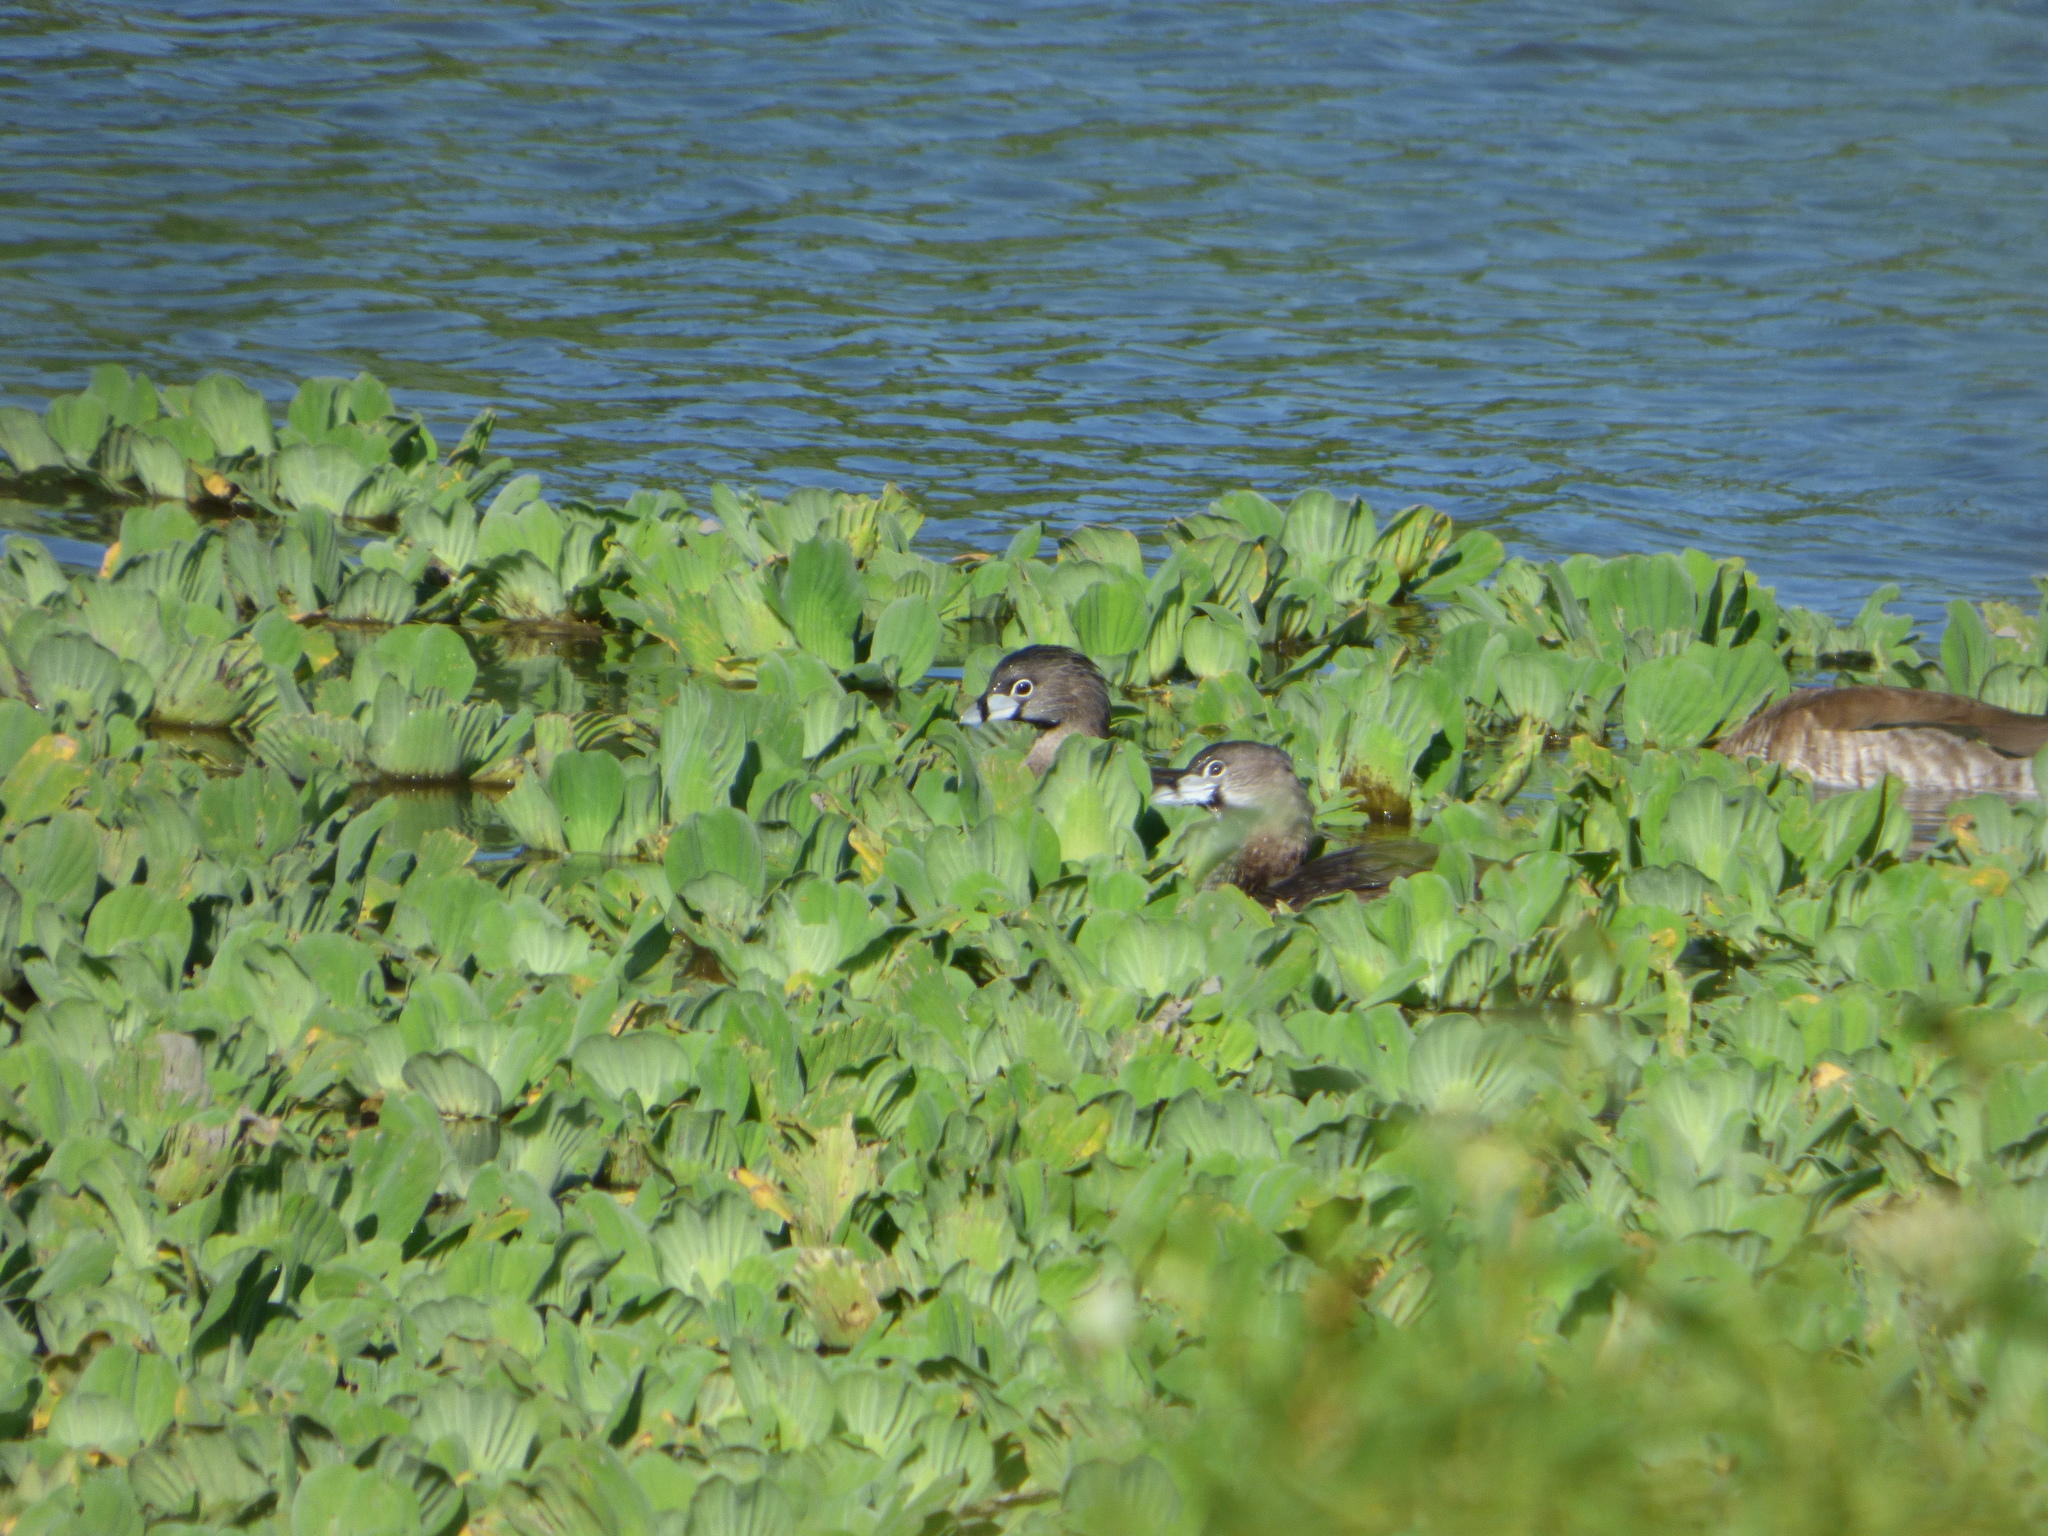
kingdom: Animalia
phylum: Chordata
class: Aves
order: Podicipediformes
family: Podicipedidae
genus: Podilymbus
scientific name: Podilymbus podiceps
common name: Pied-billed grebe
